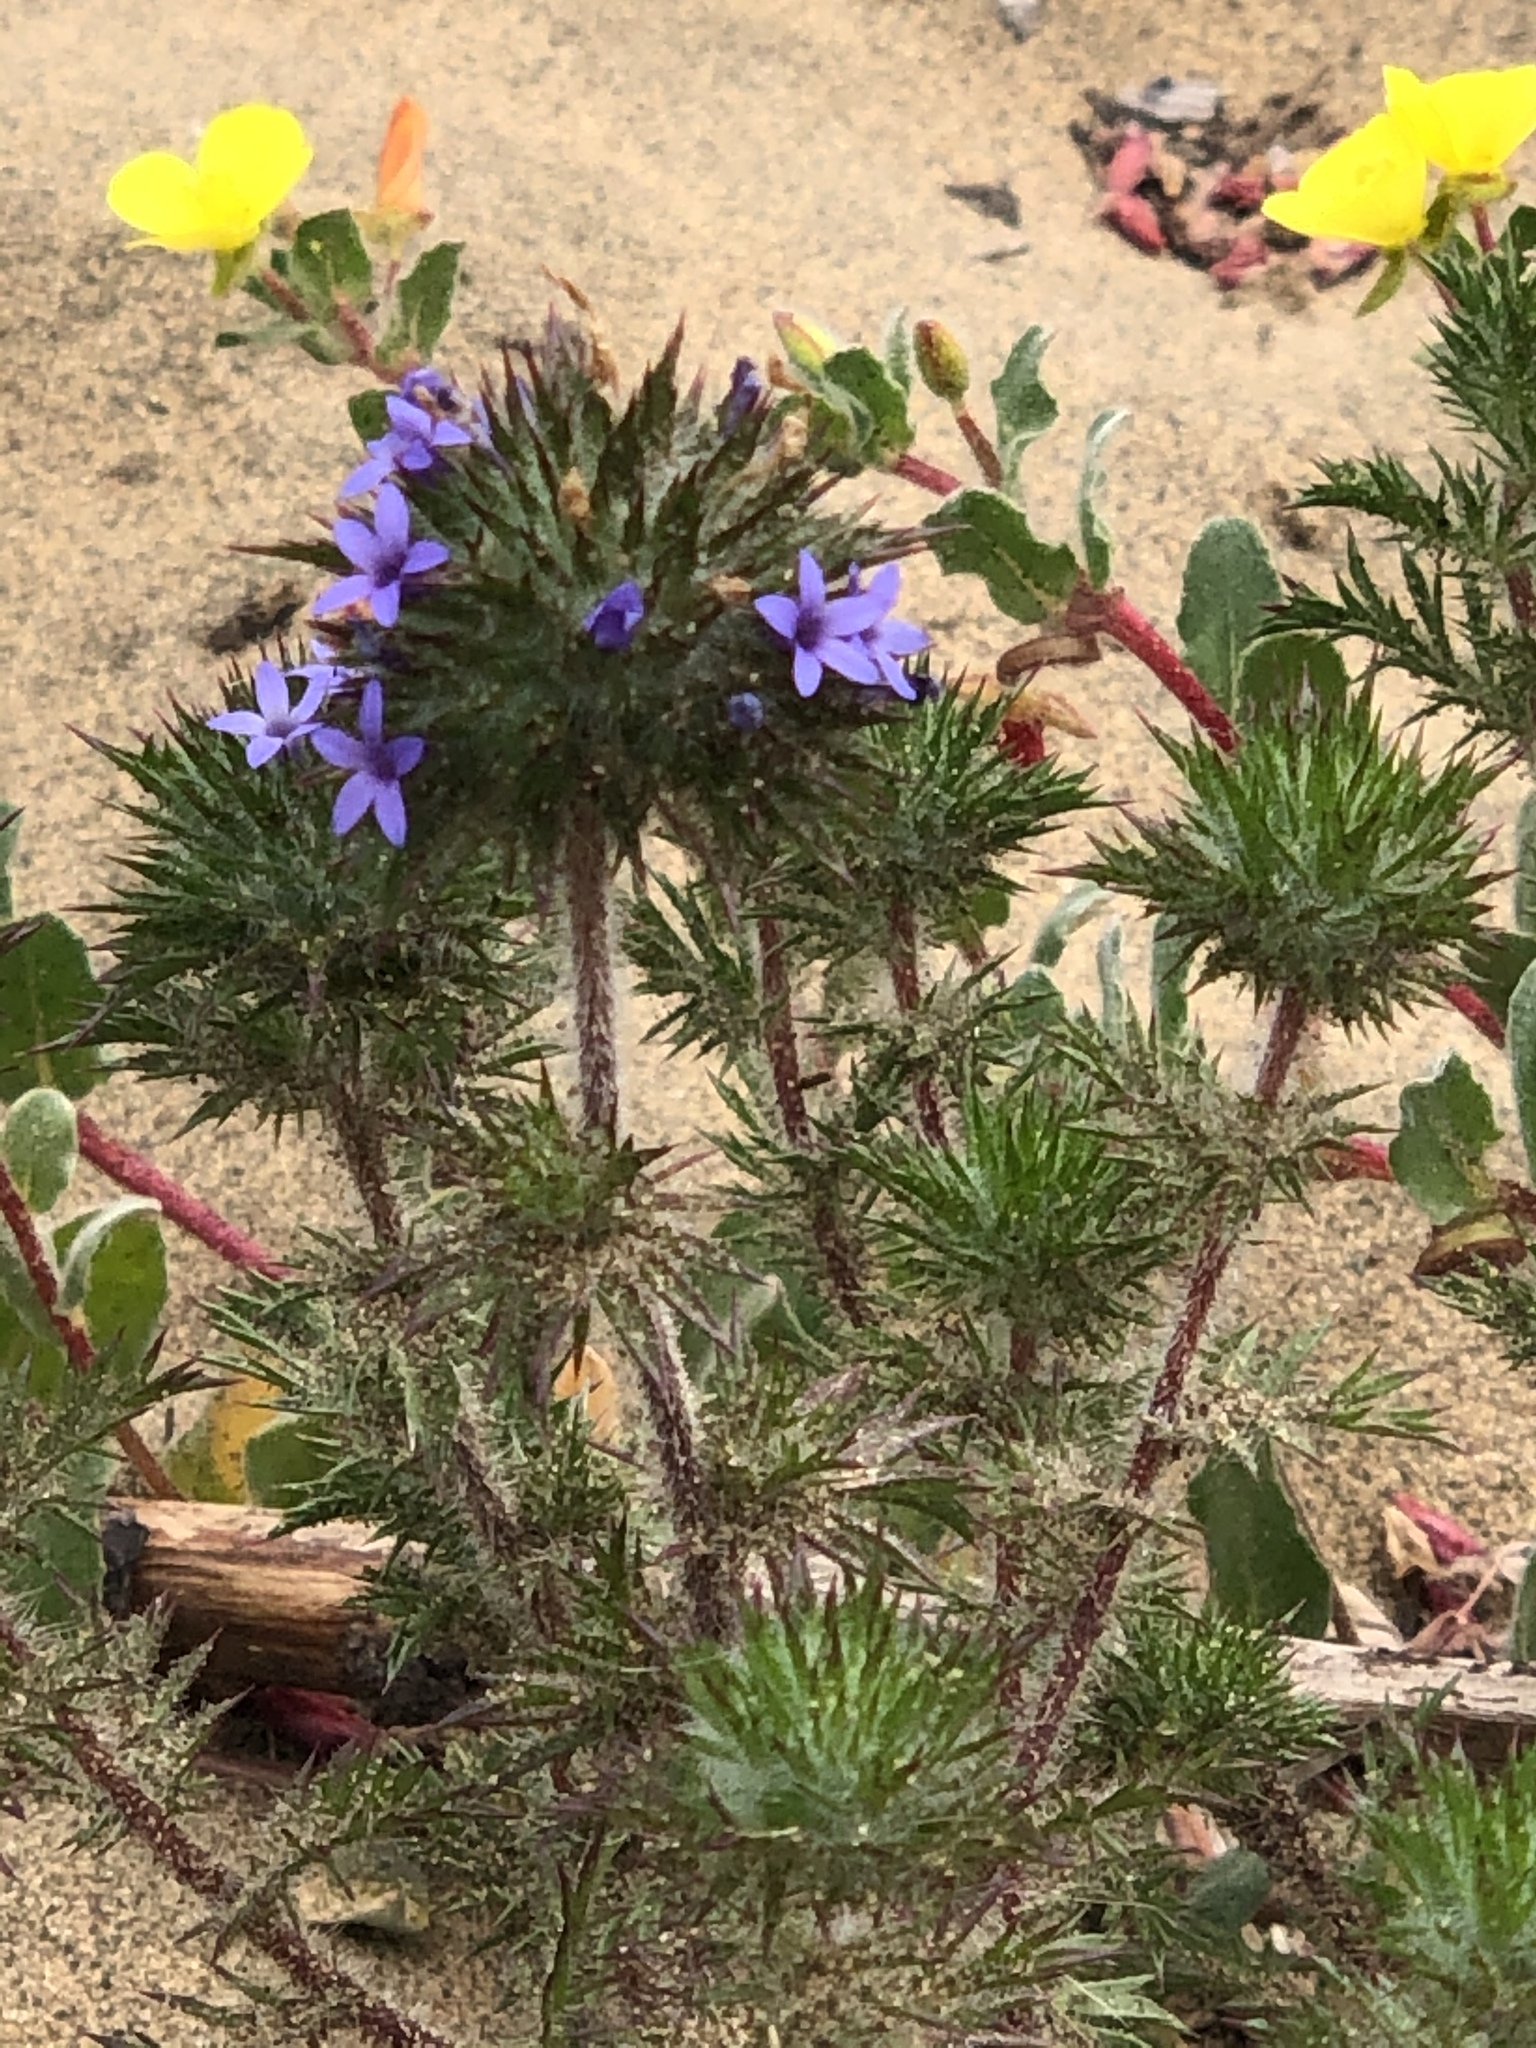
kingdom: Plantae
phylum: Tracheophyta
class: Magnoliopsida
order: Ericales
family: Polemoniaceae
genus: Navarretia
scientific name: Navarretia squarrosa
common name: Skunkweed
